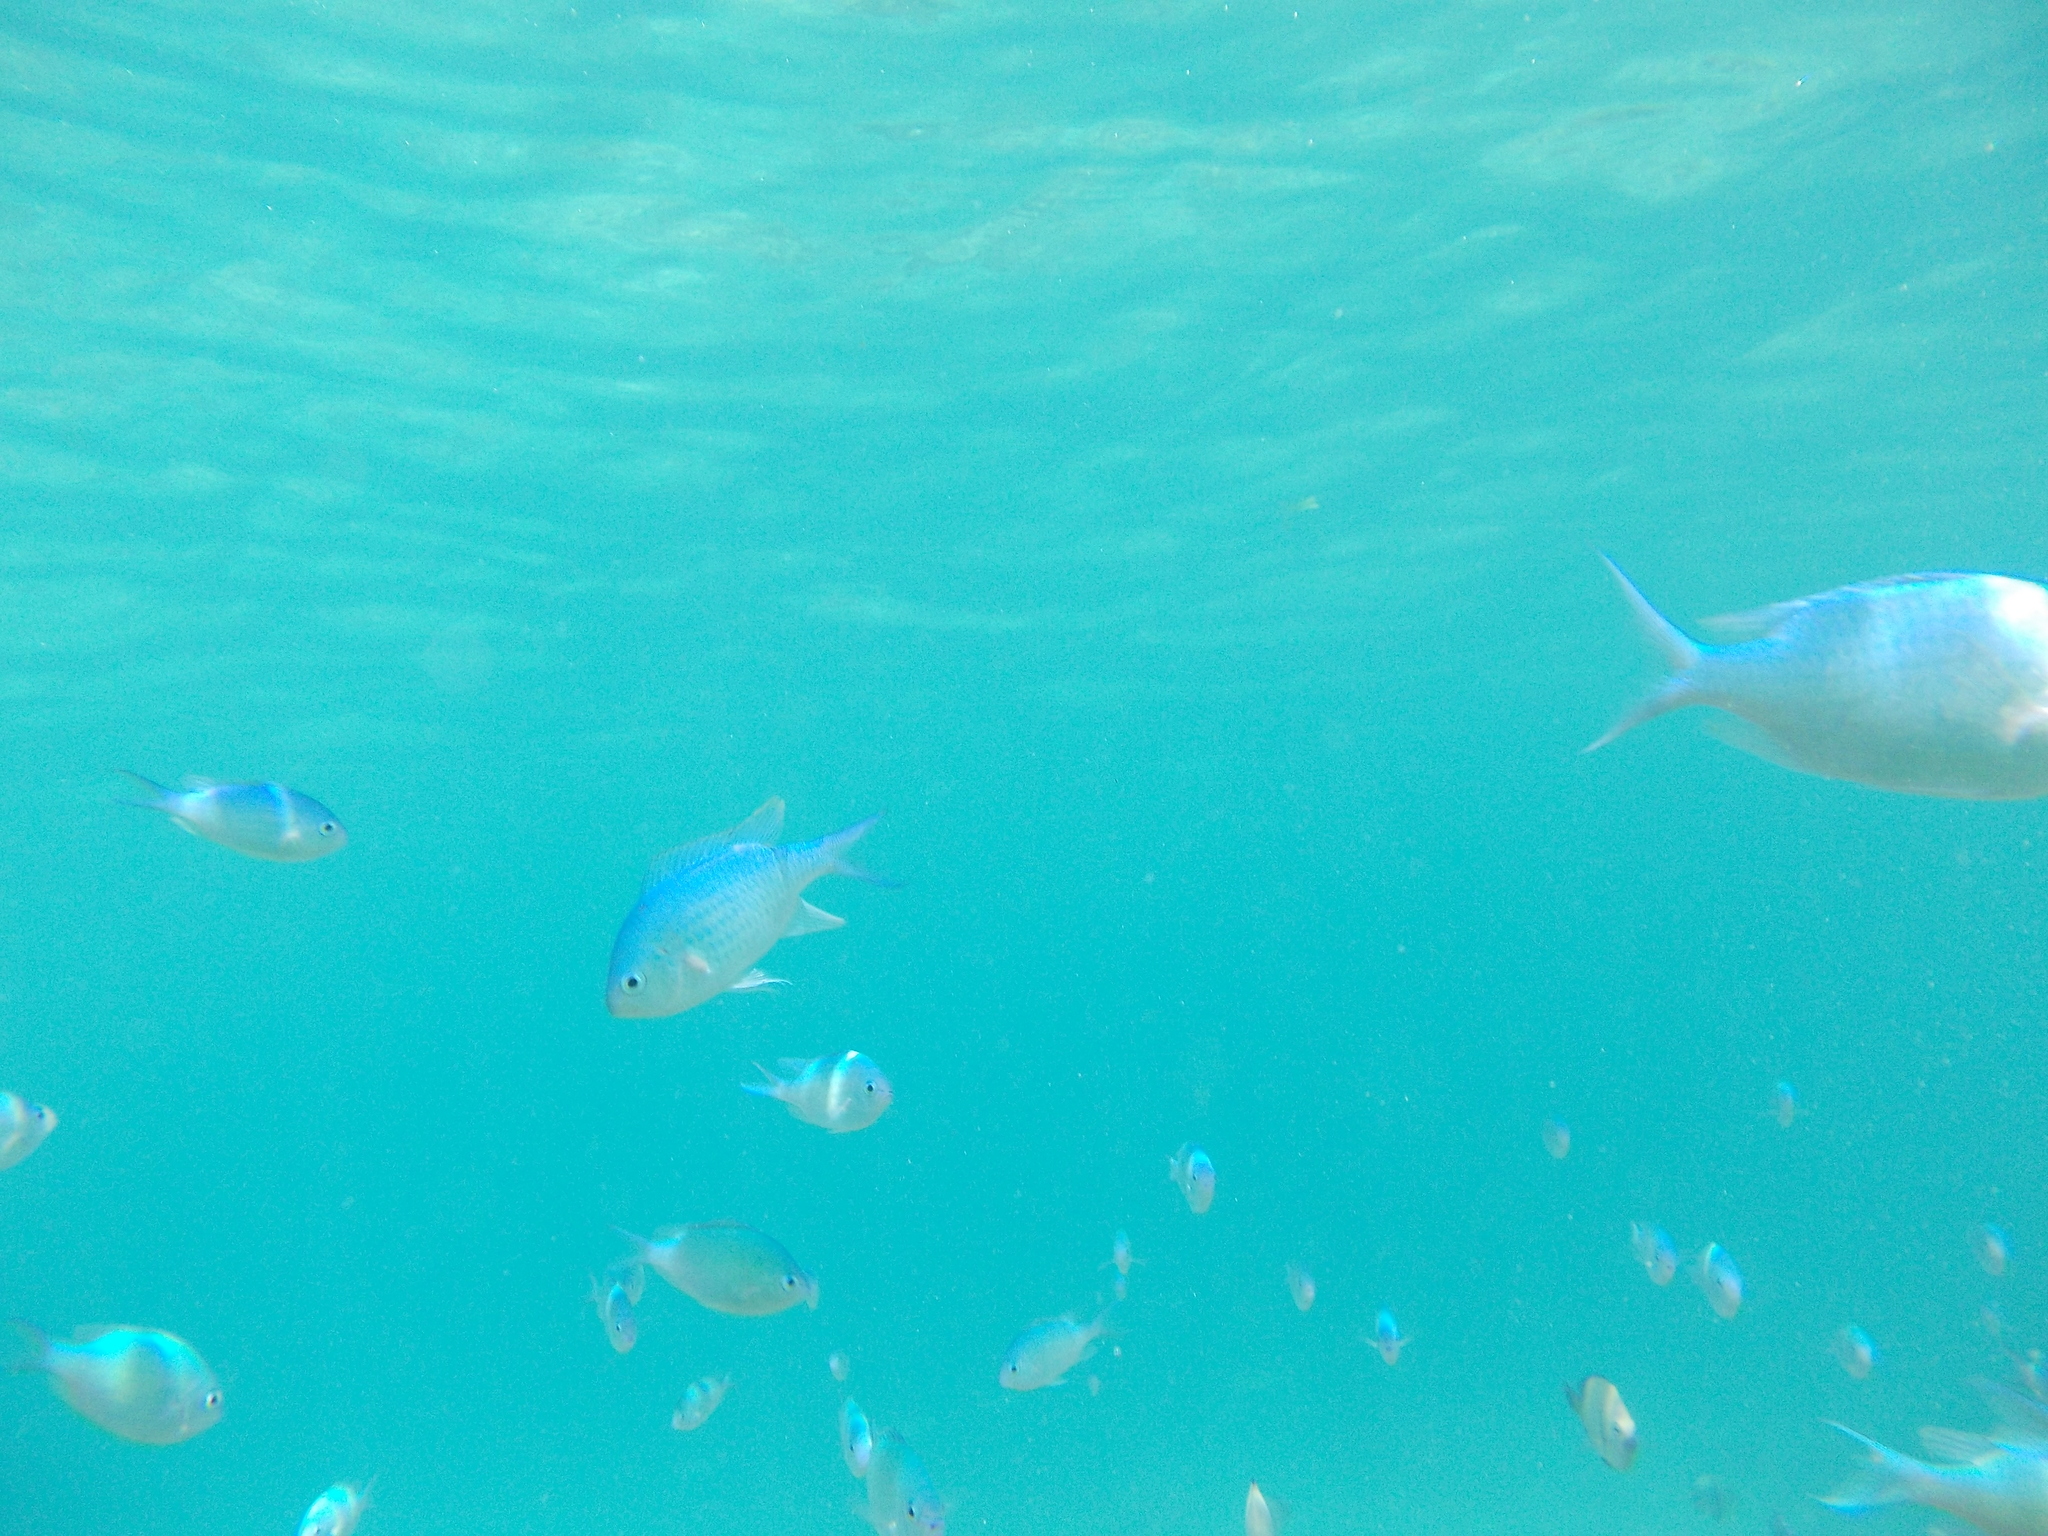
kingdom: Animalia
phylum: Chordata
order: Perciformes
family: Pomacentridae
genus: Chromis
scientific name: Chromis viridis
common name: Blue-green chromis
